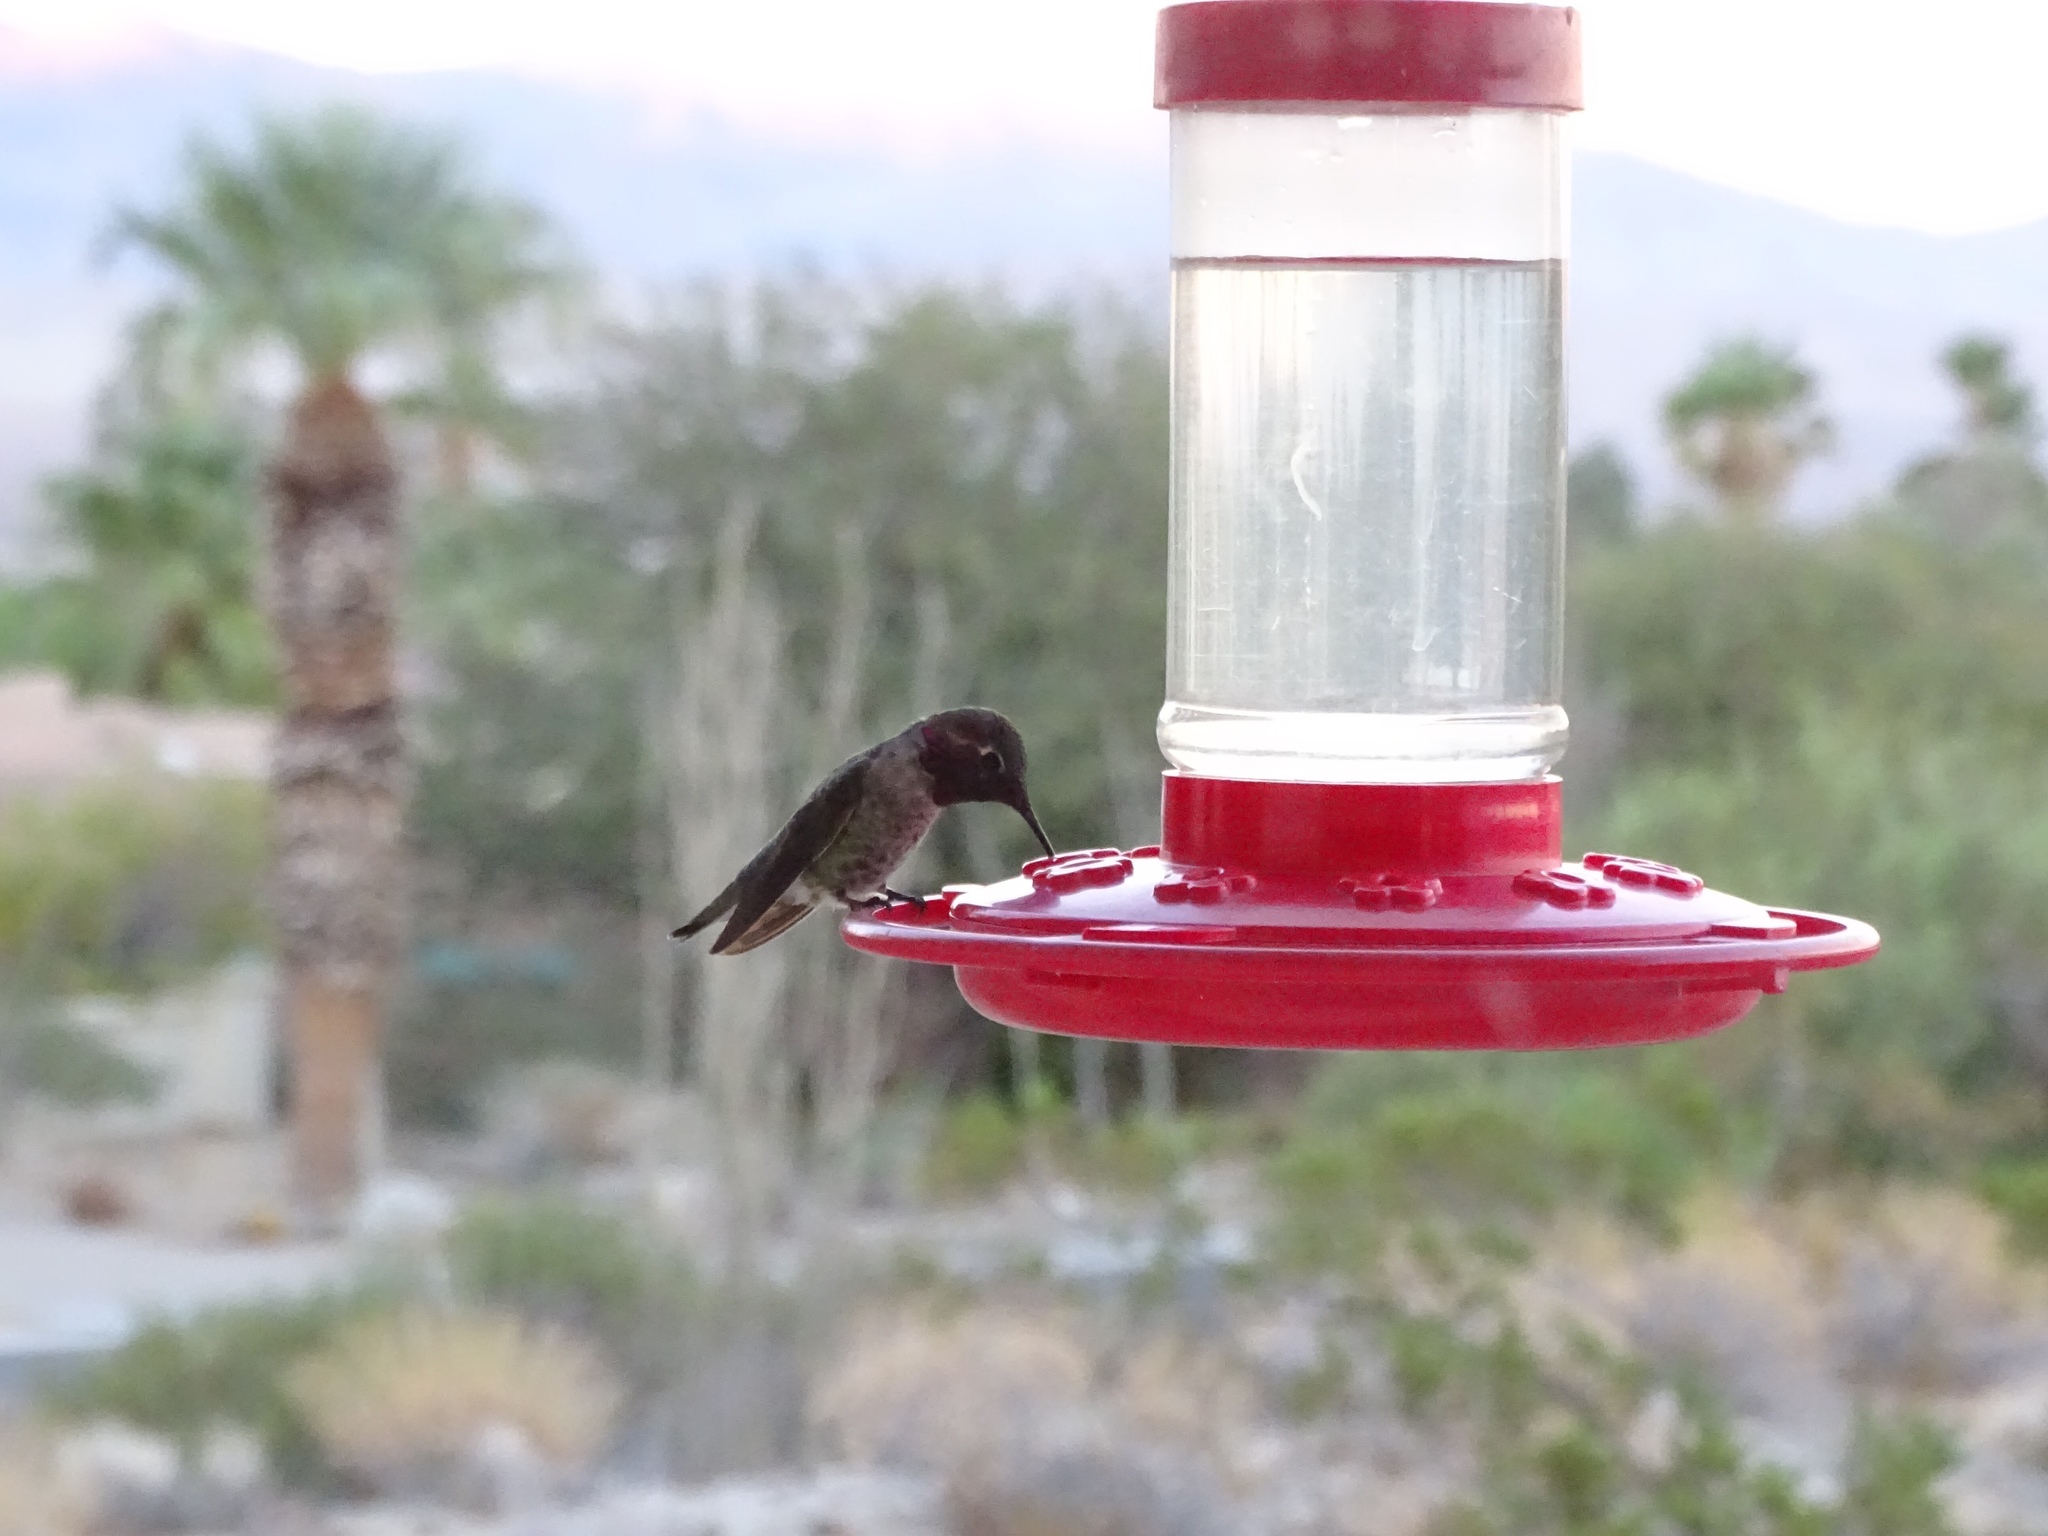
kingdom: Animalia
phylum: Chordata
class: Aves
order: Apodiformes
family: Trochilidae
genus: Calypte
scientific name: Calypte anna
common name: Anna's hummingbird
